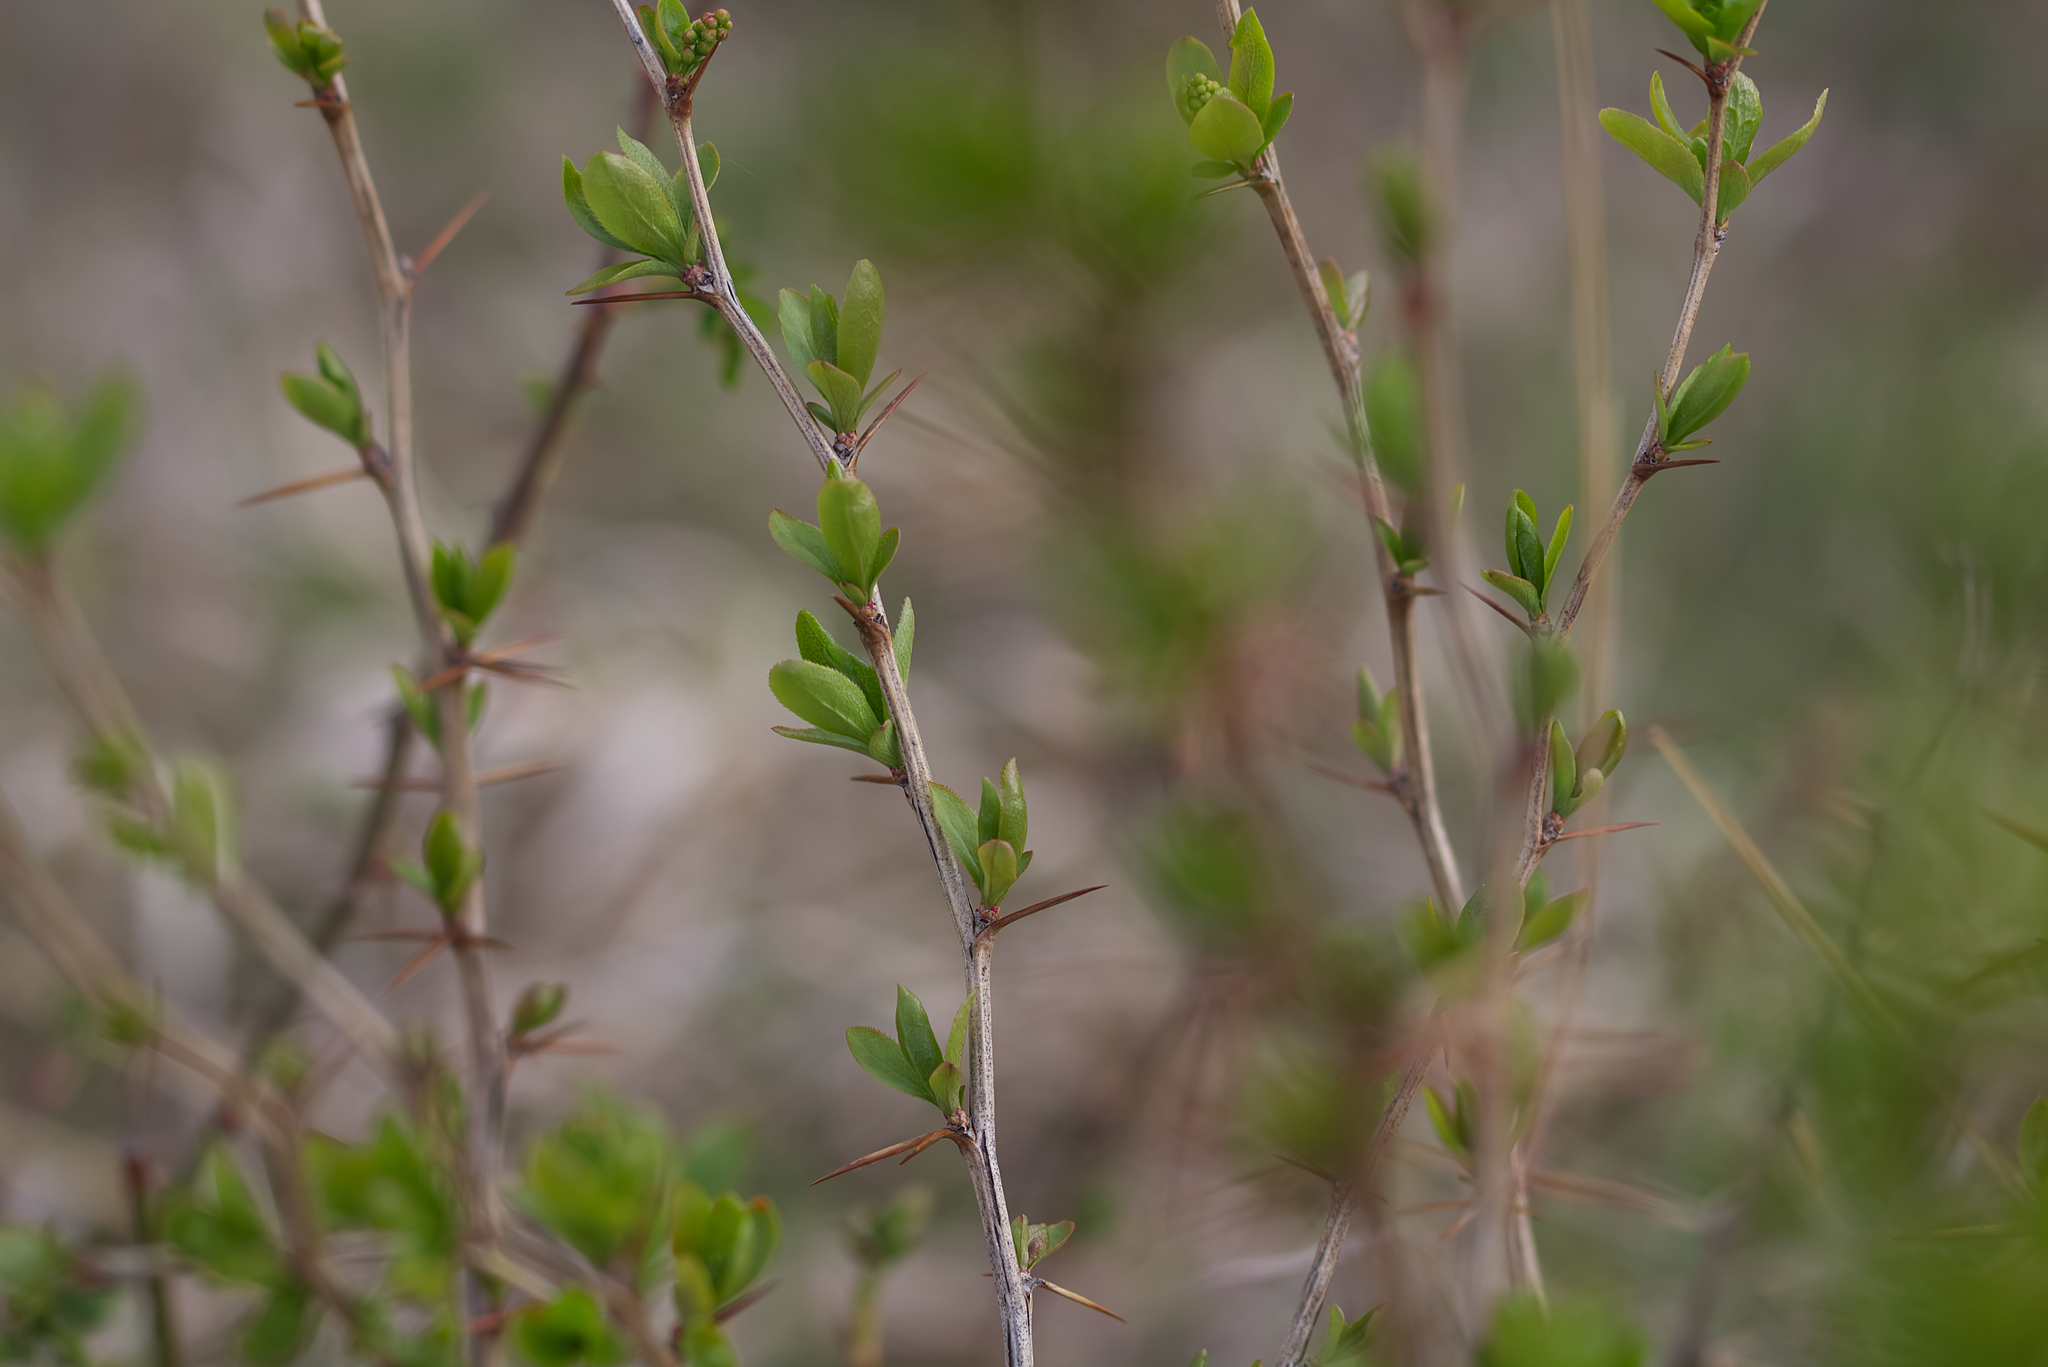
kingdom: Plantae
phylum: Tracheophyta
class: Magnoliopsida
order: Ranunculales
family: Berberidaceae
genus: Berberis
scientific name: Berberis vulgaris
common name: Barberry
